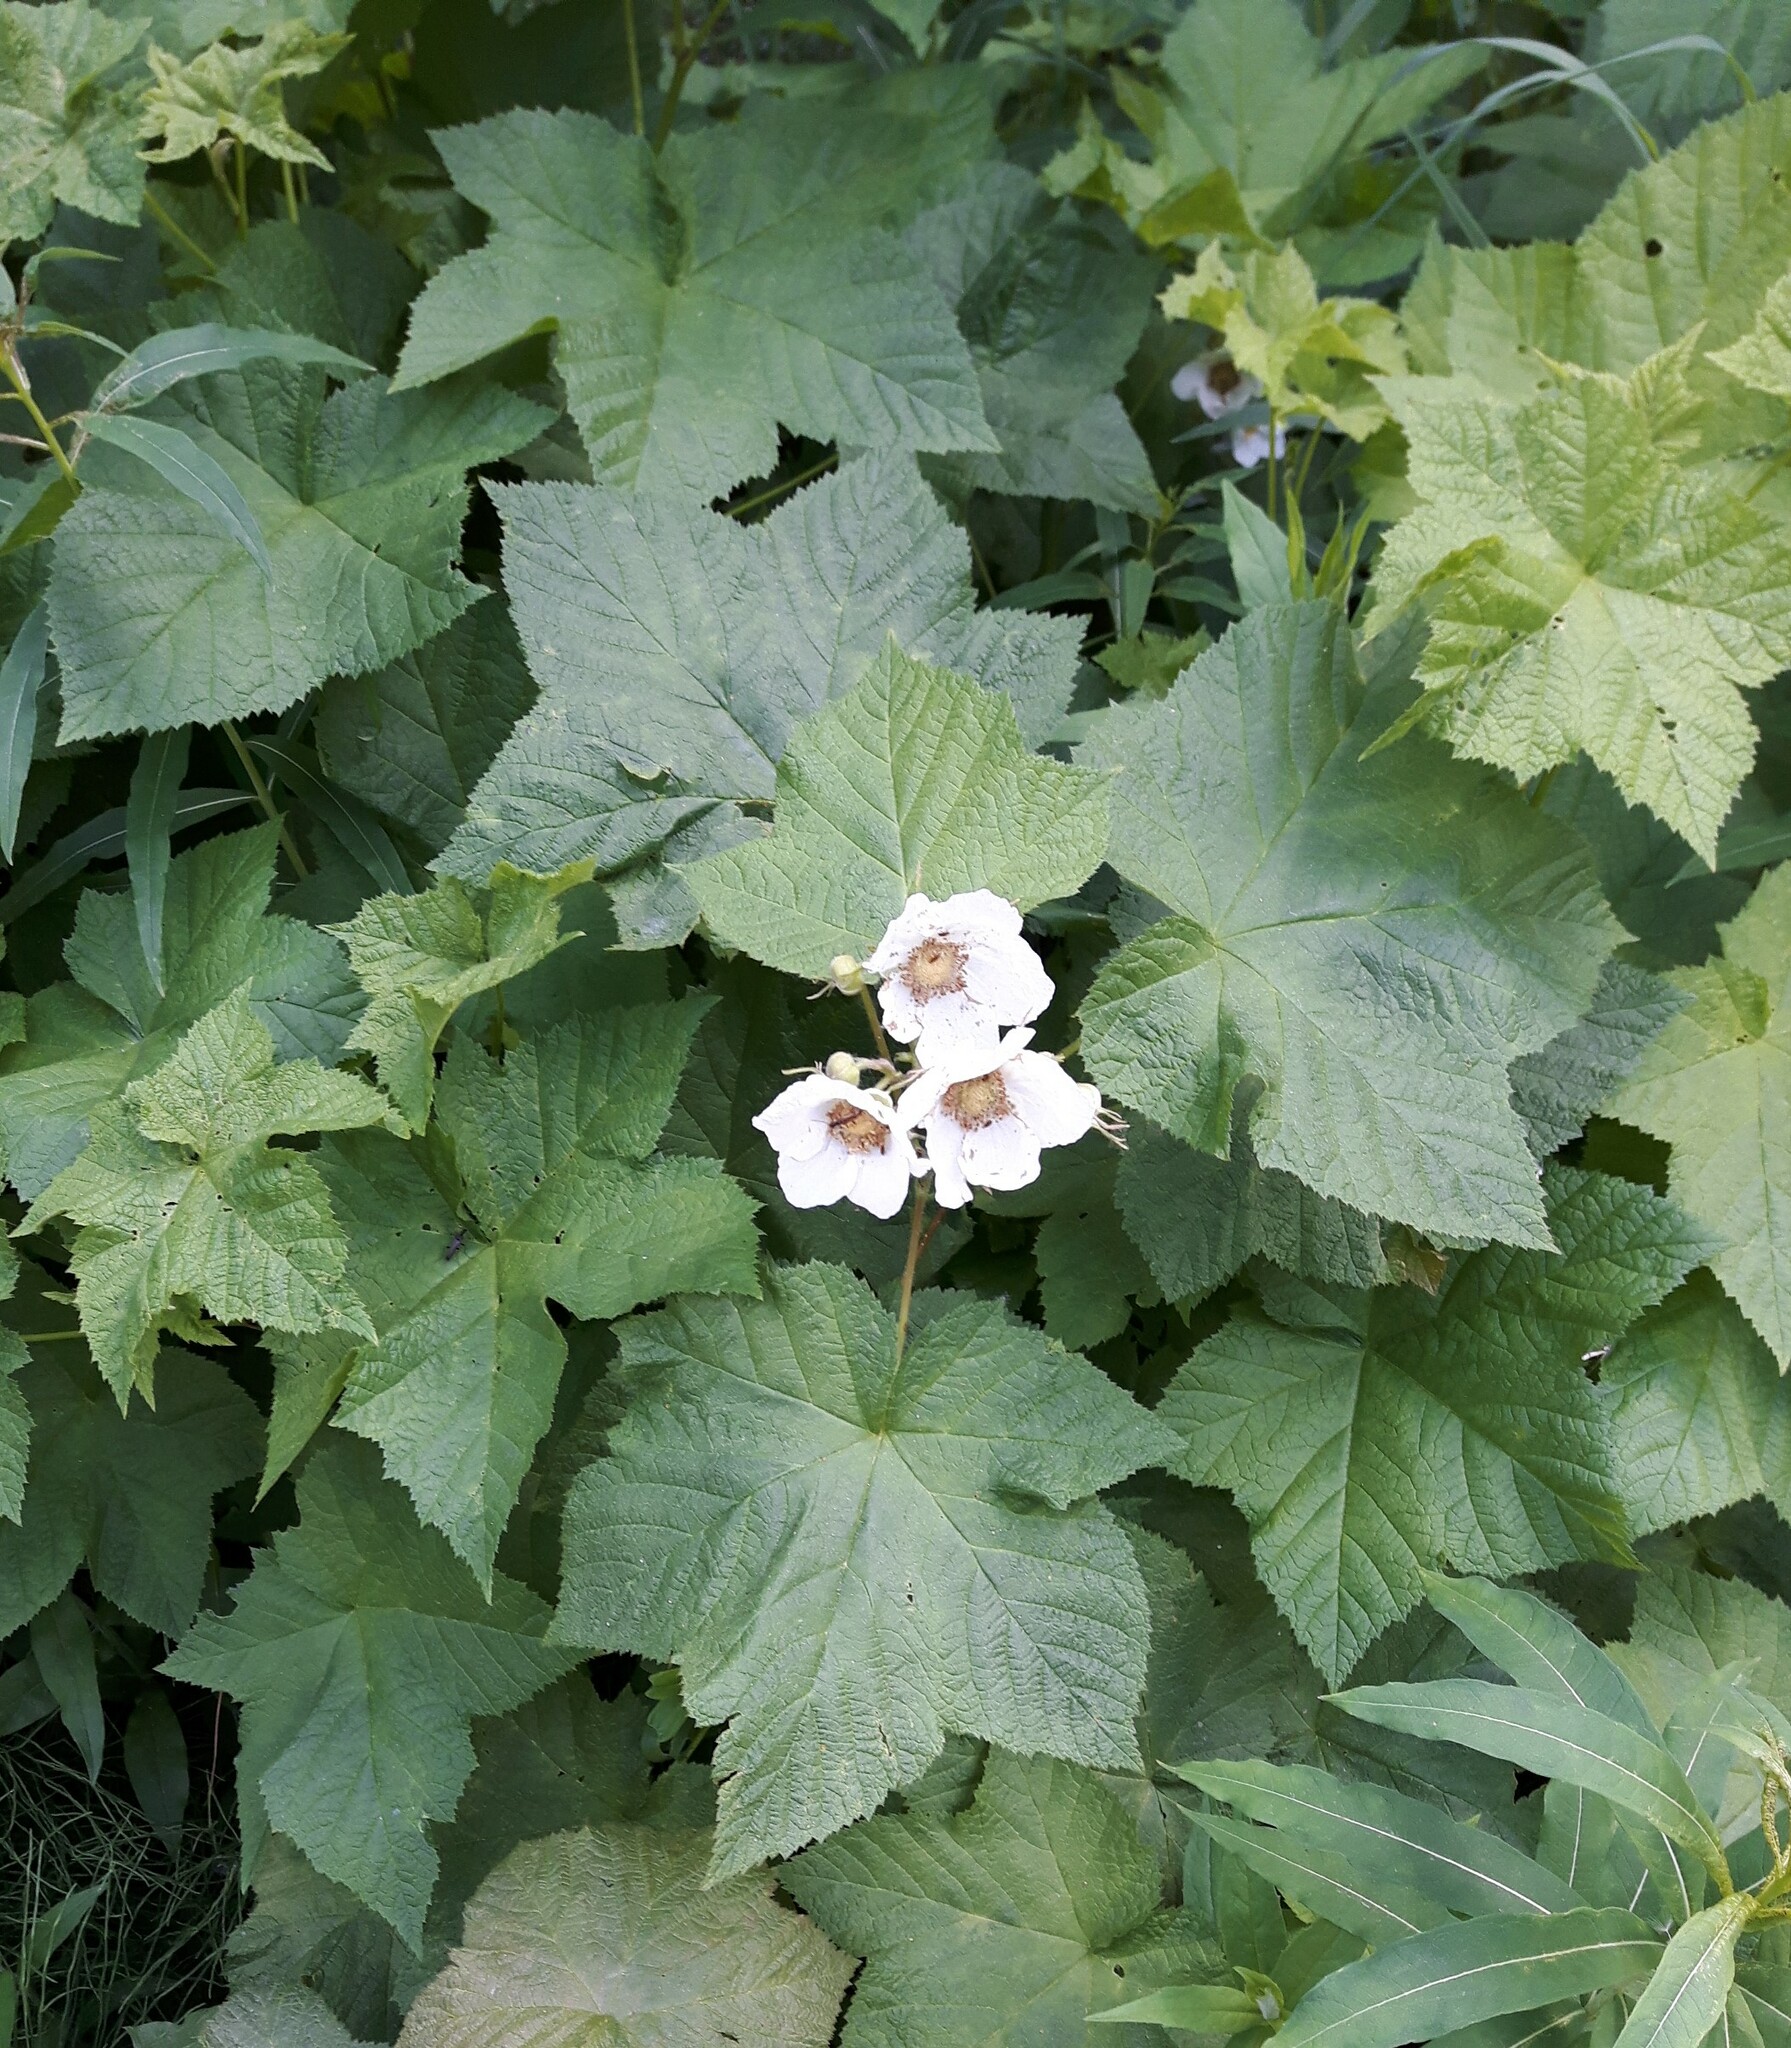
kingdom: Plantae
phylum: Tracheophyta
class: Magnoliopsida
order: Rosales
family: Rosaceae
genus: Rubus
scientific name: Rubus parviflorus
